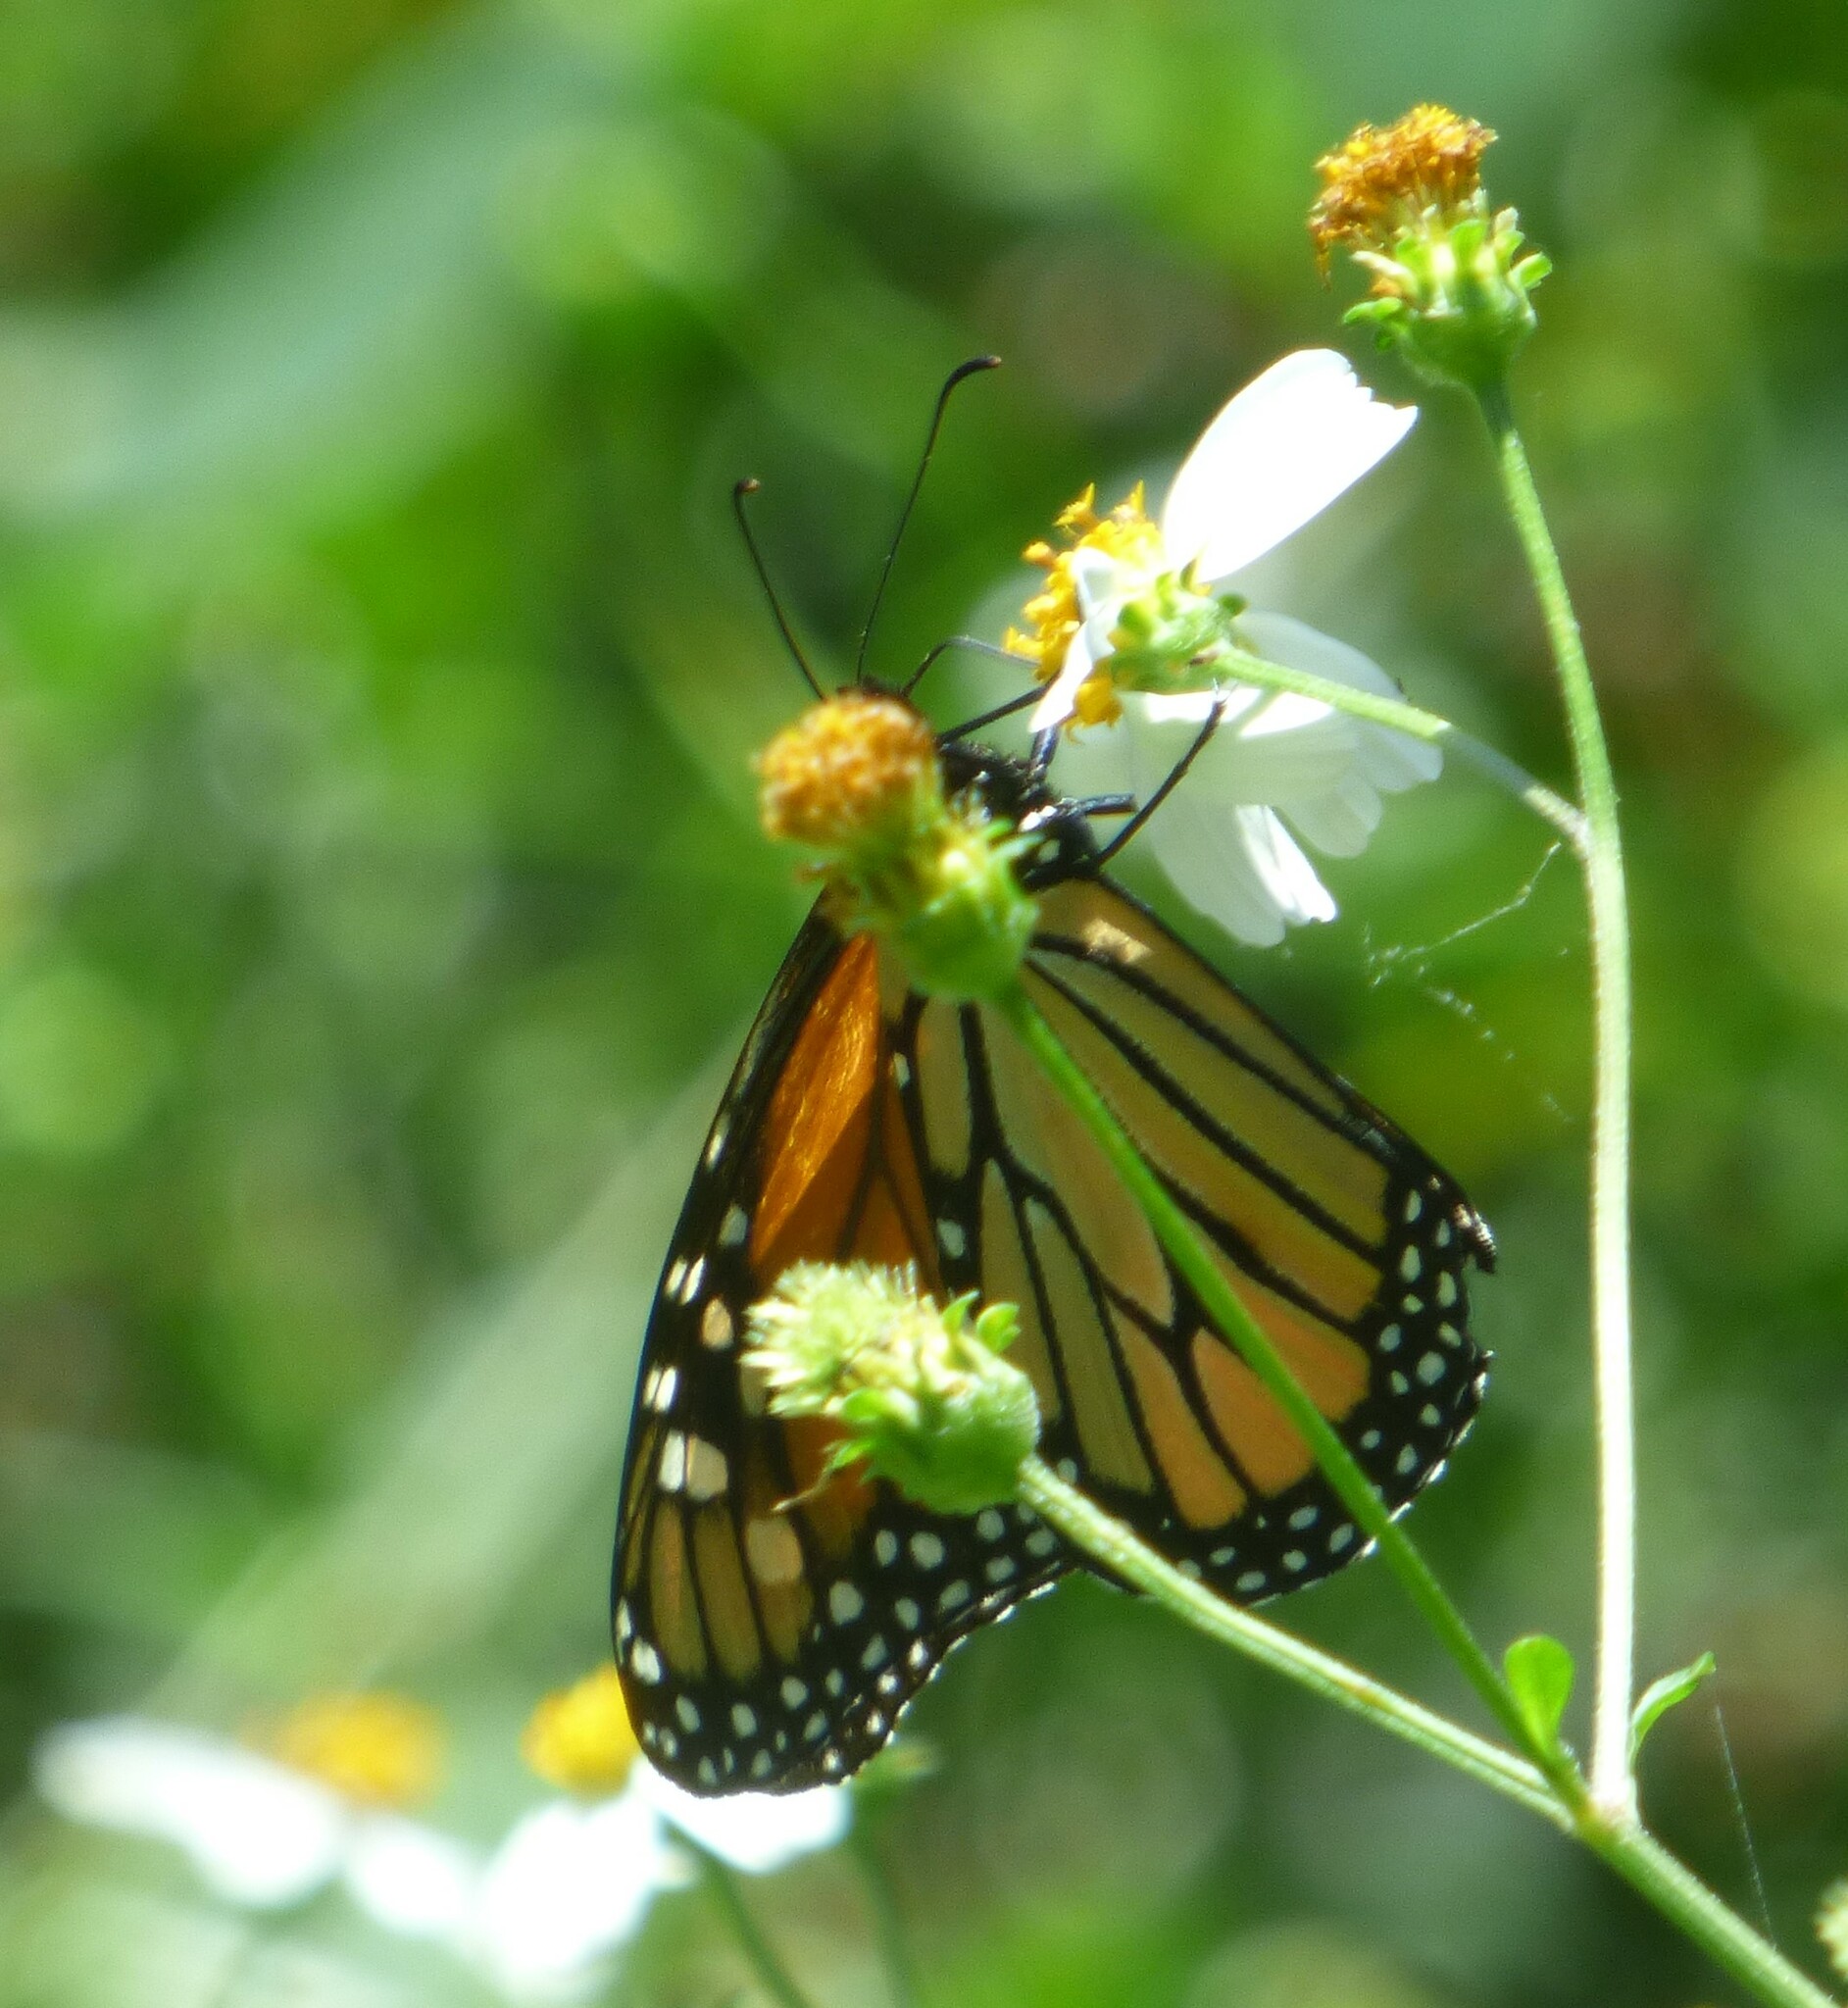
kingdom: Animalia
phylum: Arthropoda
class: Insecta
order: Lepidoptera
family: Nymphalidae
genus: Danaus
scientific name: Danaus plexippus
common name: Monarch
